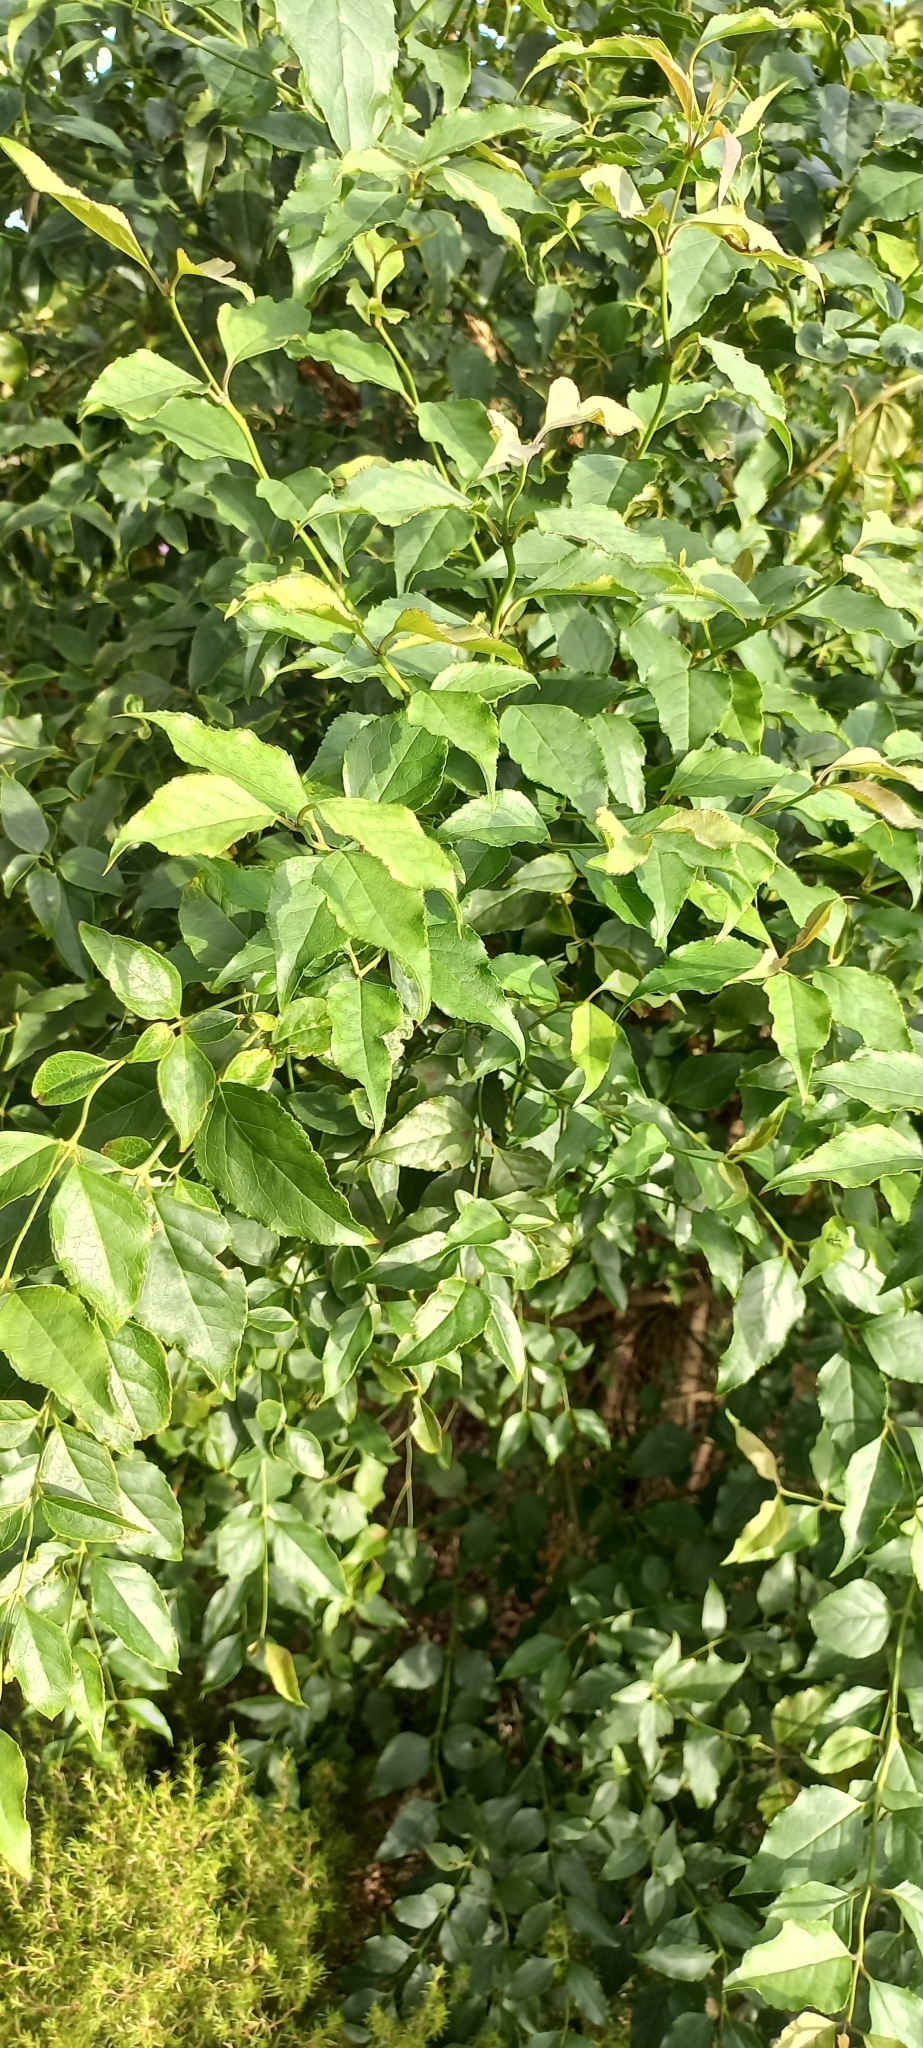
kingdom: Plantae
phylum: Tracheophyta
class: Magnoliopsida
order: Lamiales
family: Stilbaceae
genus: Halleria
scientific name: Halleria lucida
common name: Tree fuschia
